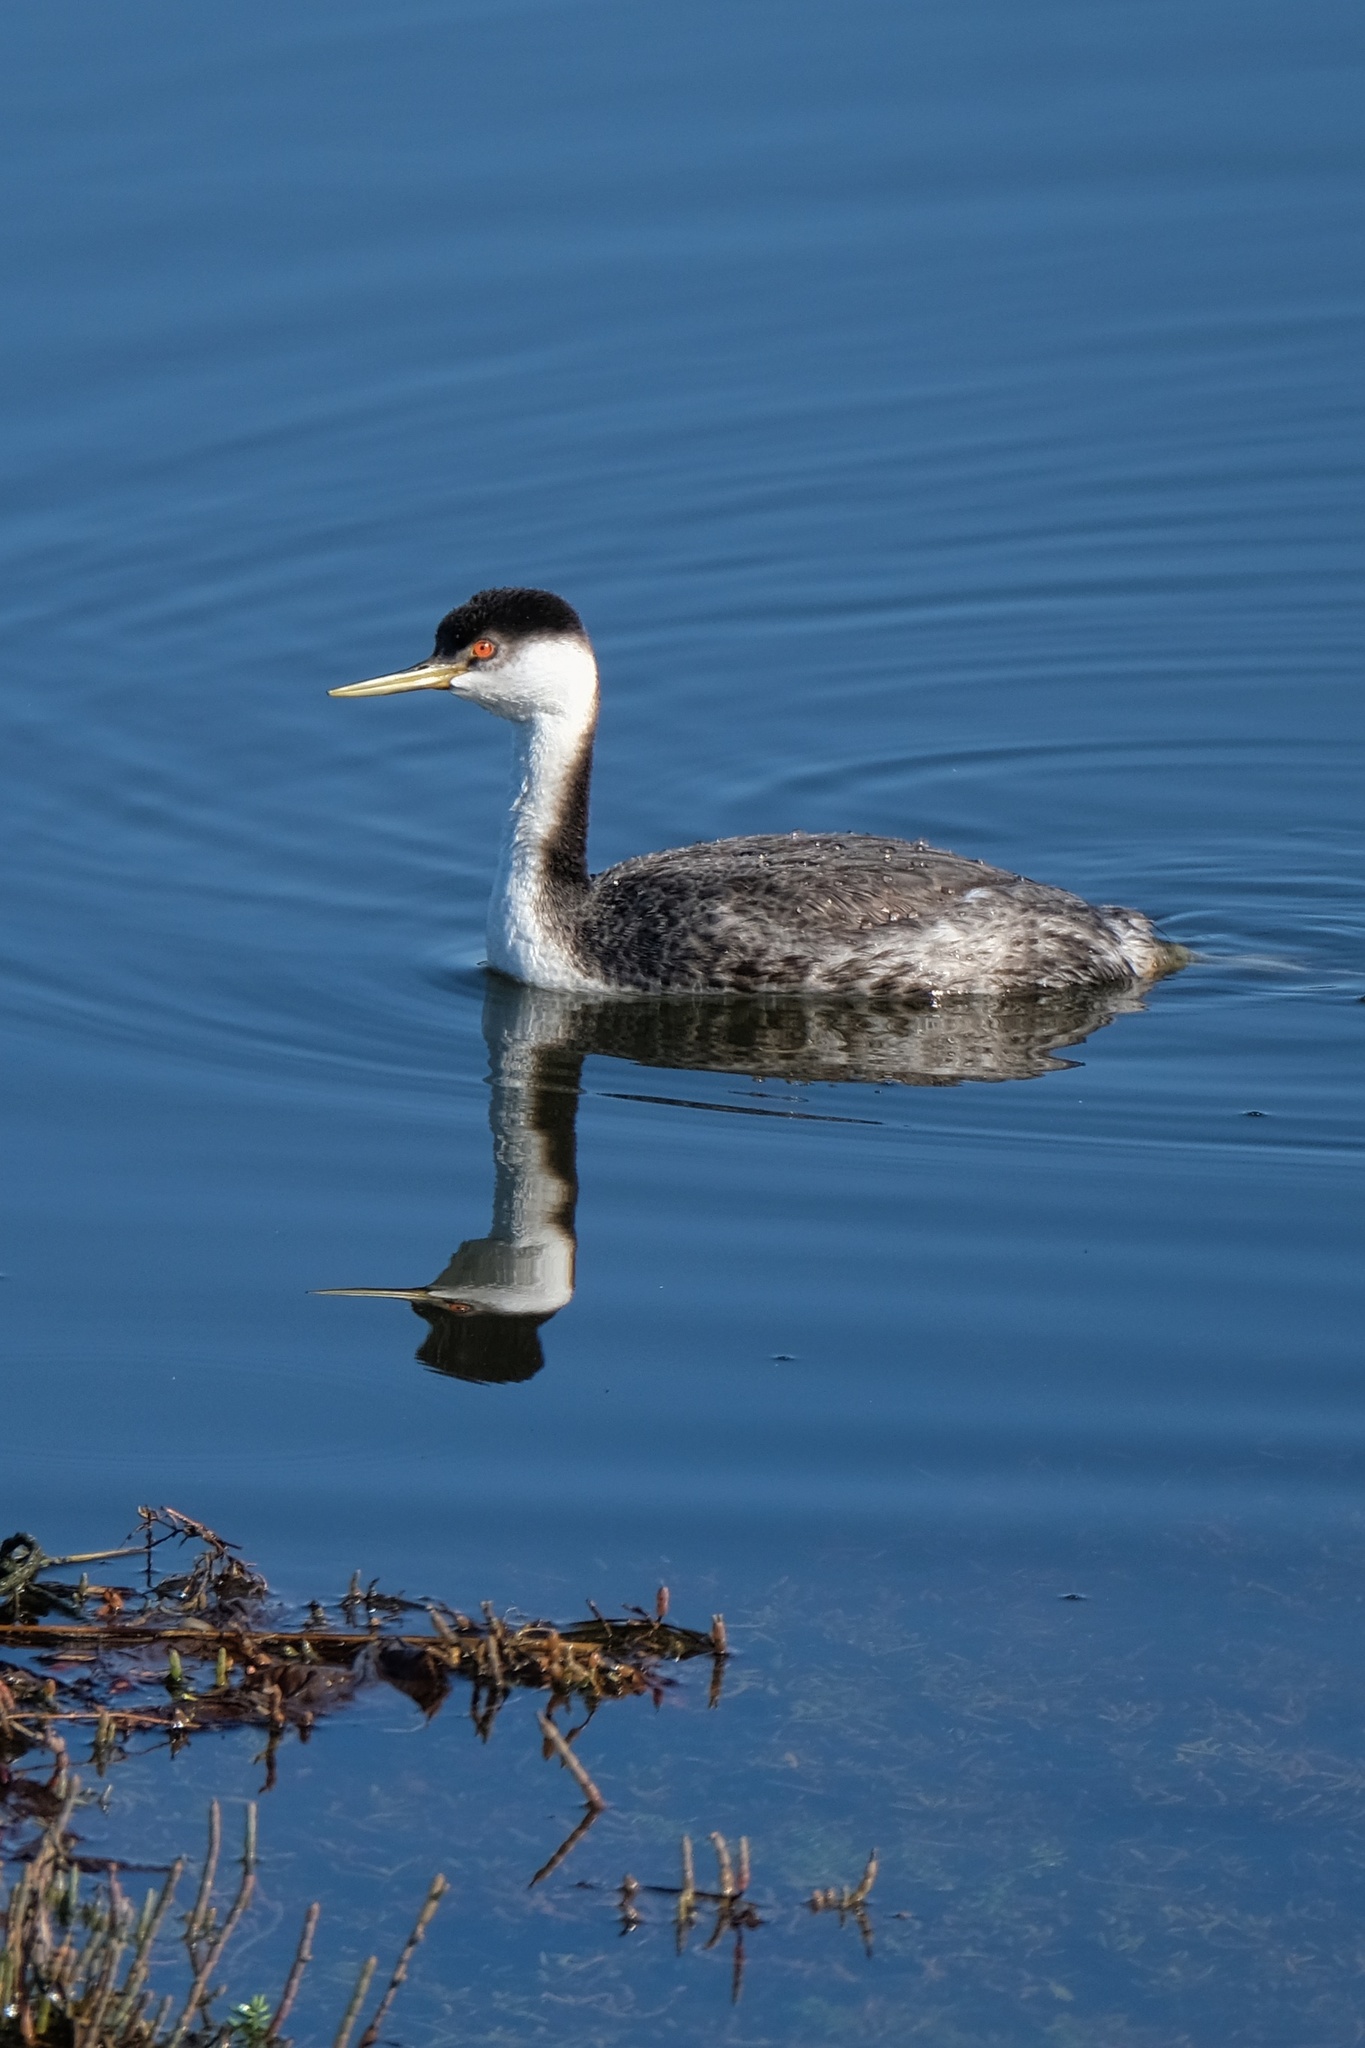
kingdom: Animalia
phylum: Chordata
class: Aves
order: Podicipediformes
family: Podicipedidae
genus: Aechmophorus
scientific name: Aechmophorus occidentalis
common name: Western grebe
